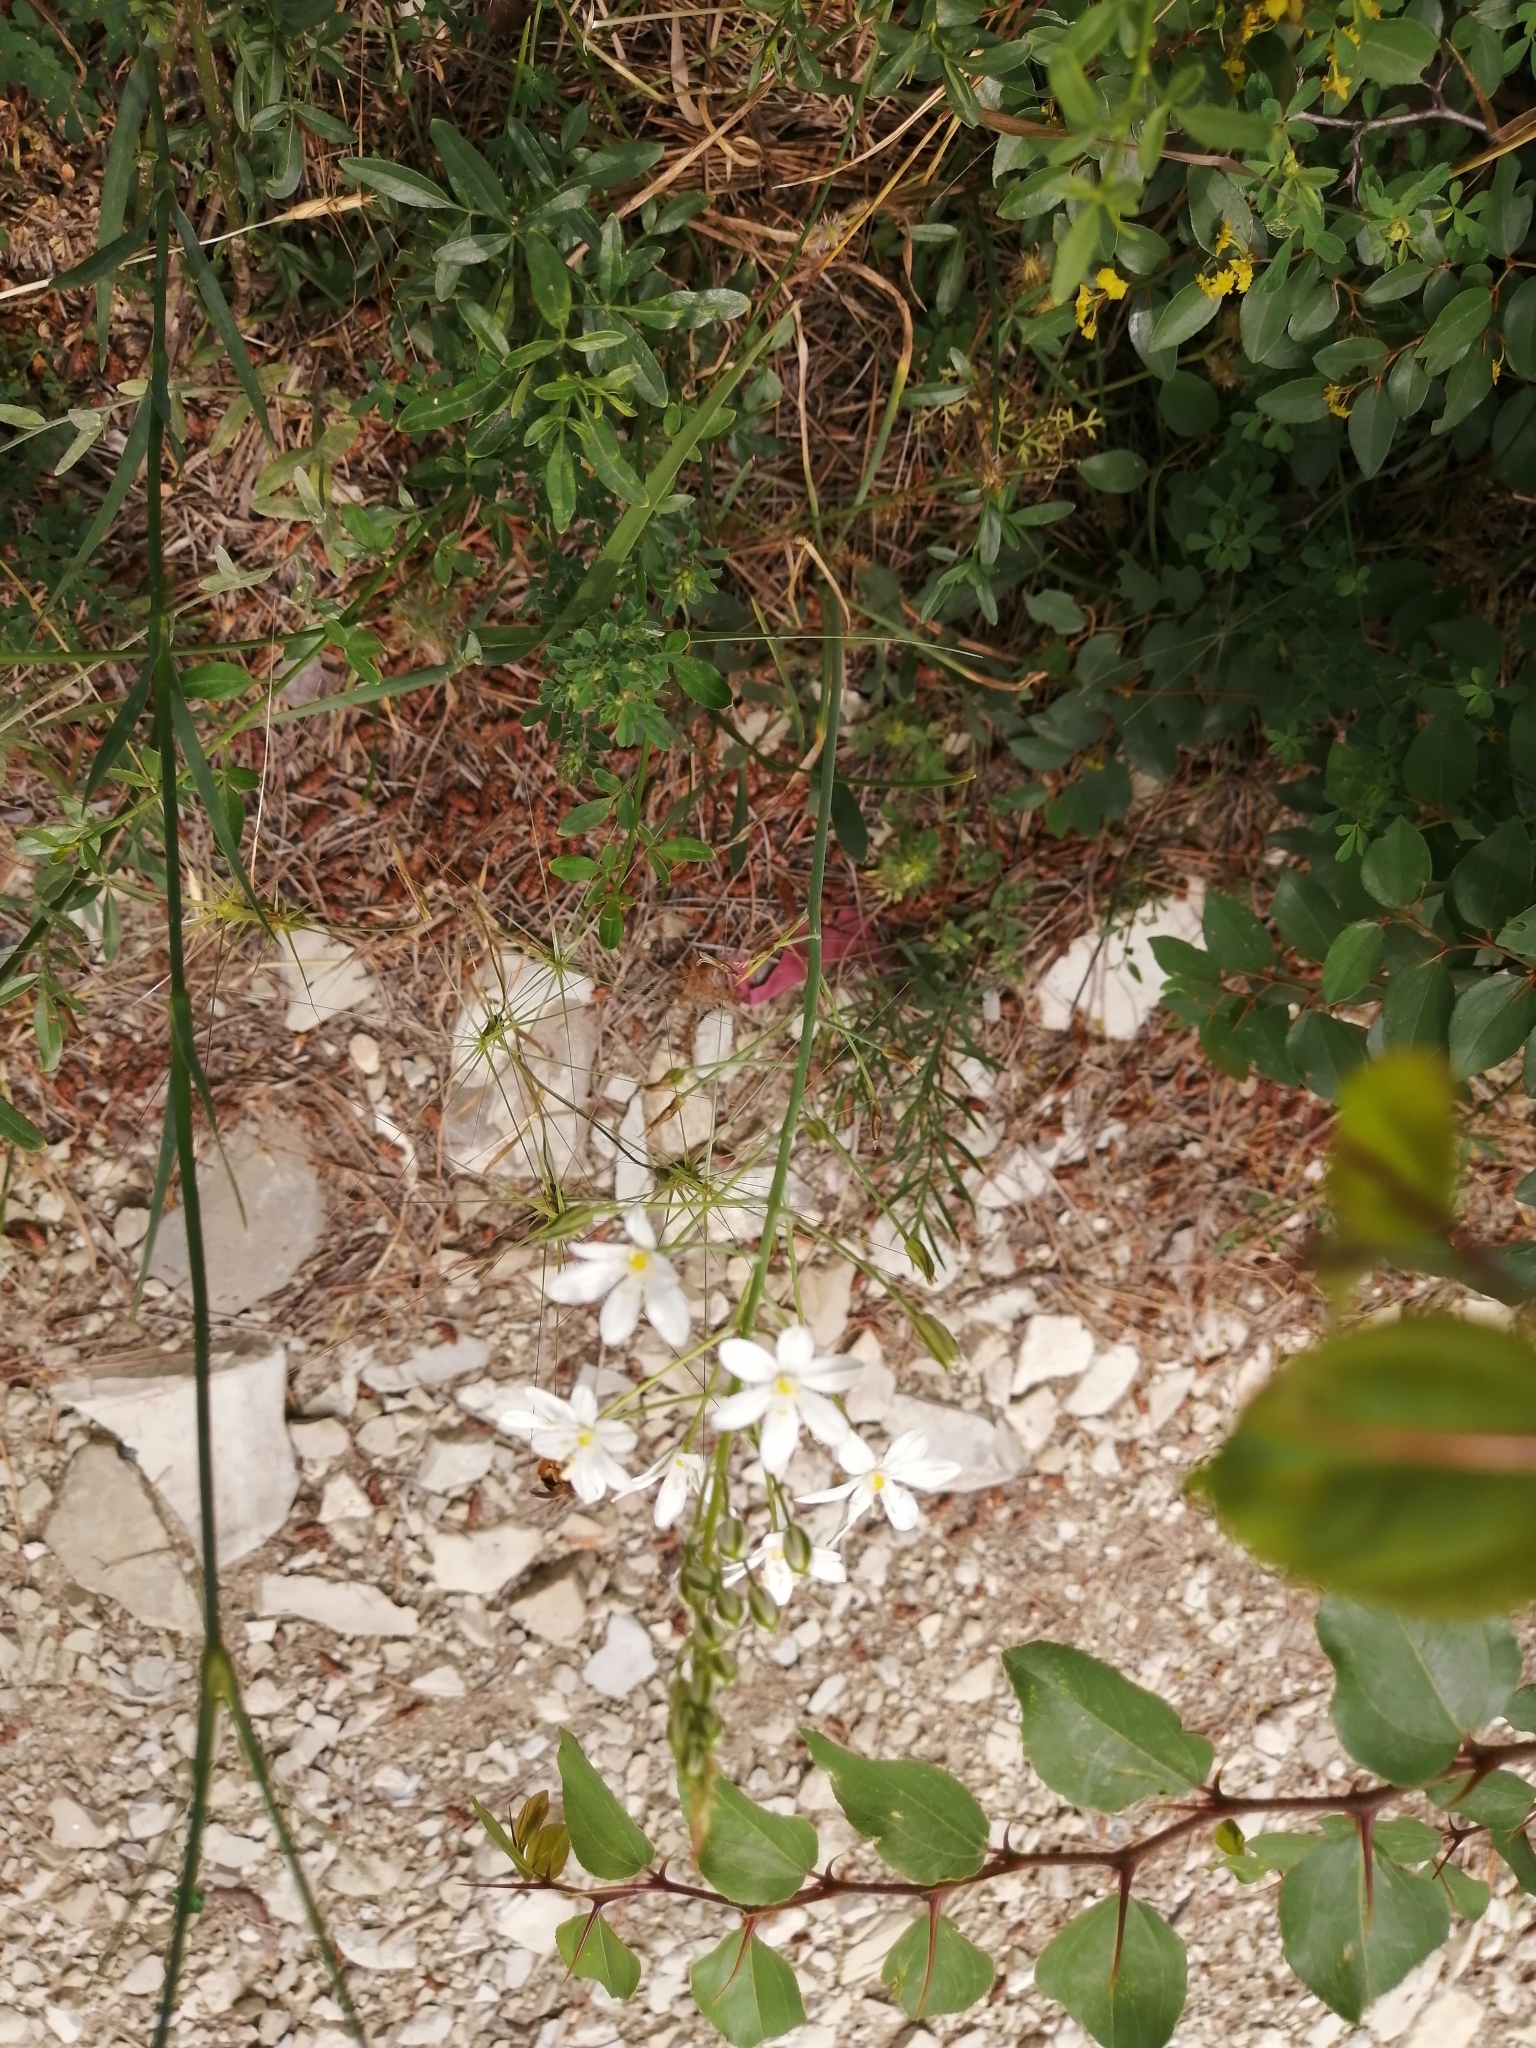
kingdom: Plantae
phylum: Tracheophyta
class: Liliopsida
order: Asparagales
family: Asparagaceae
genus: Ornithogalum
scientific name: Ornithogalum ponticum
